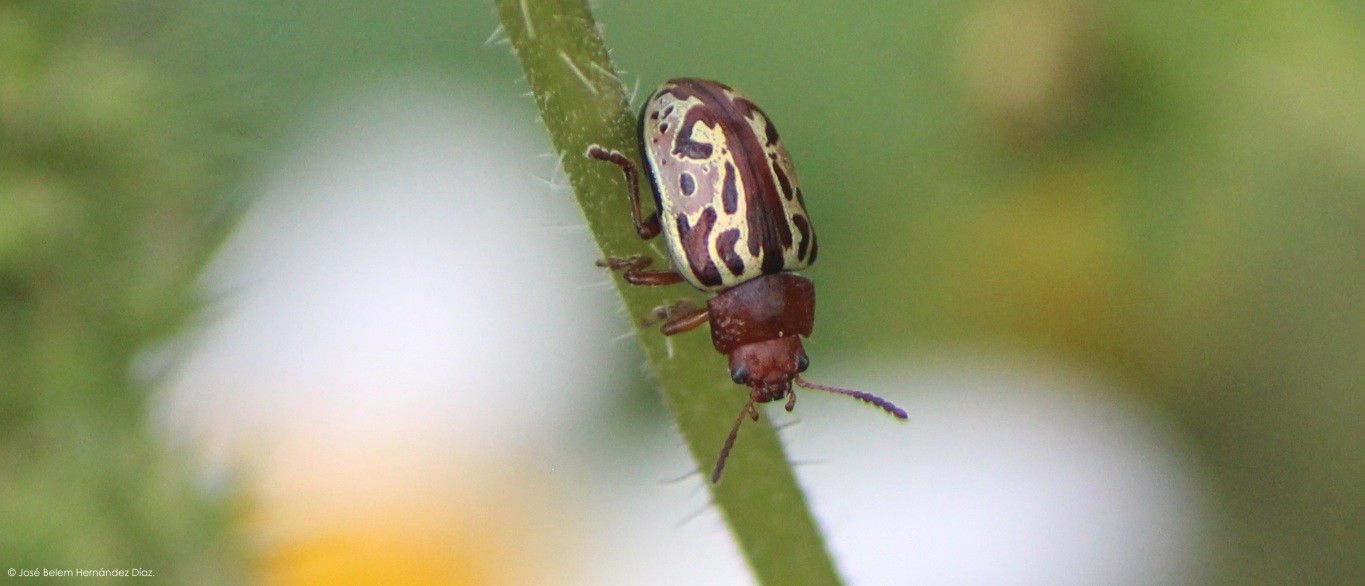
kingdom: Animalia
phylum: Arthropoda
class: Insecta
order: Coleoptera
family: Chrysomelidae
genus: Calligrapha
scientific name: Calligrapha
